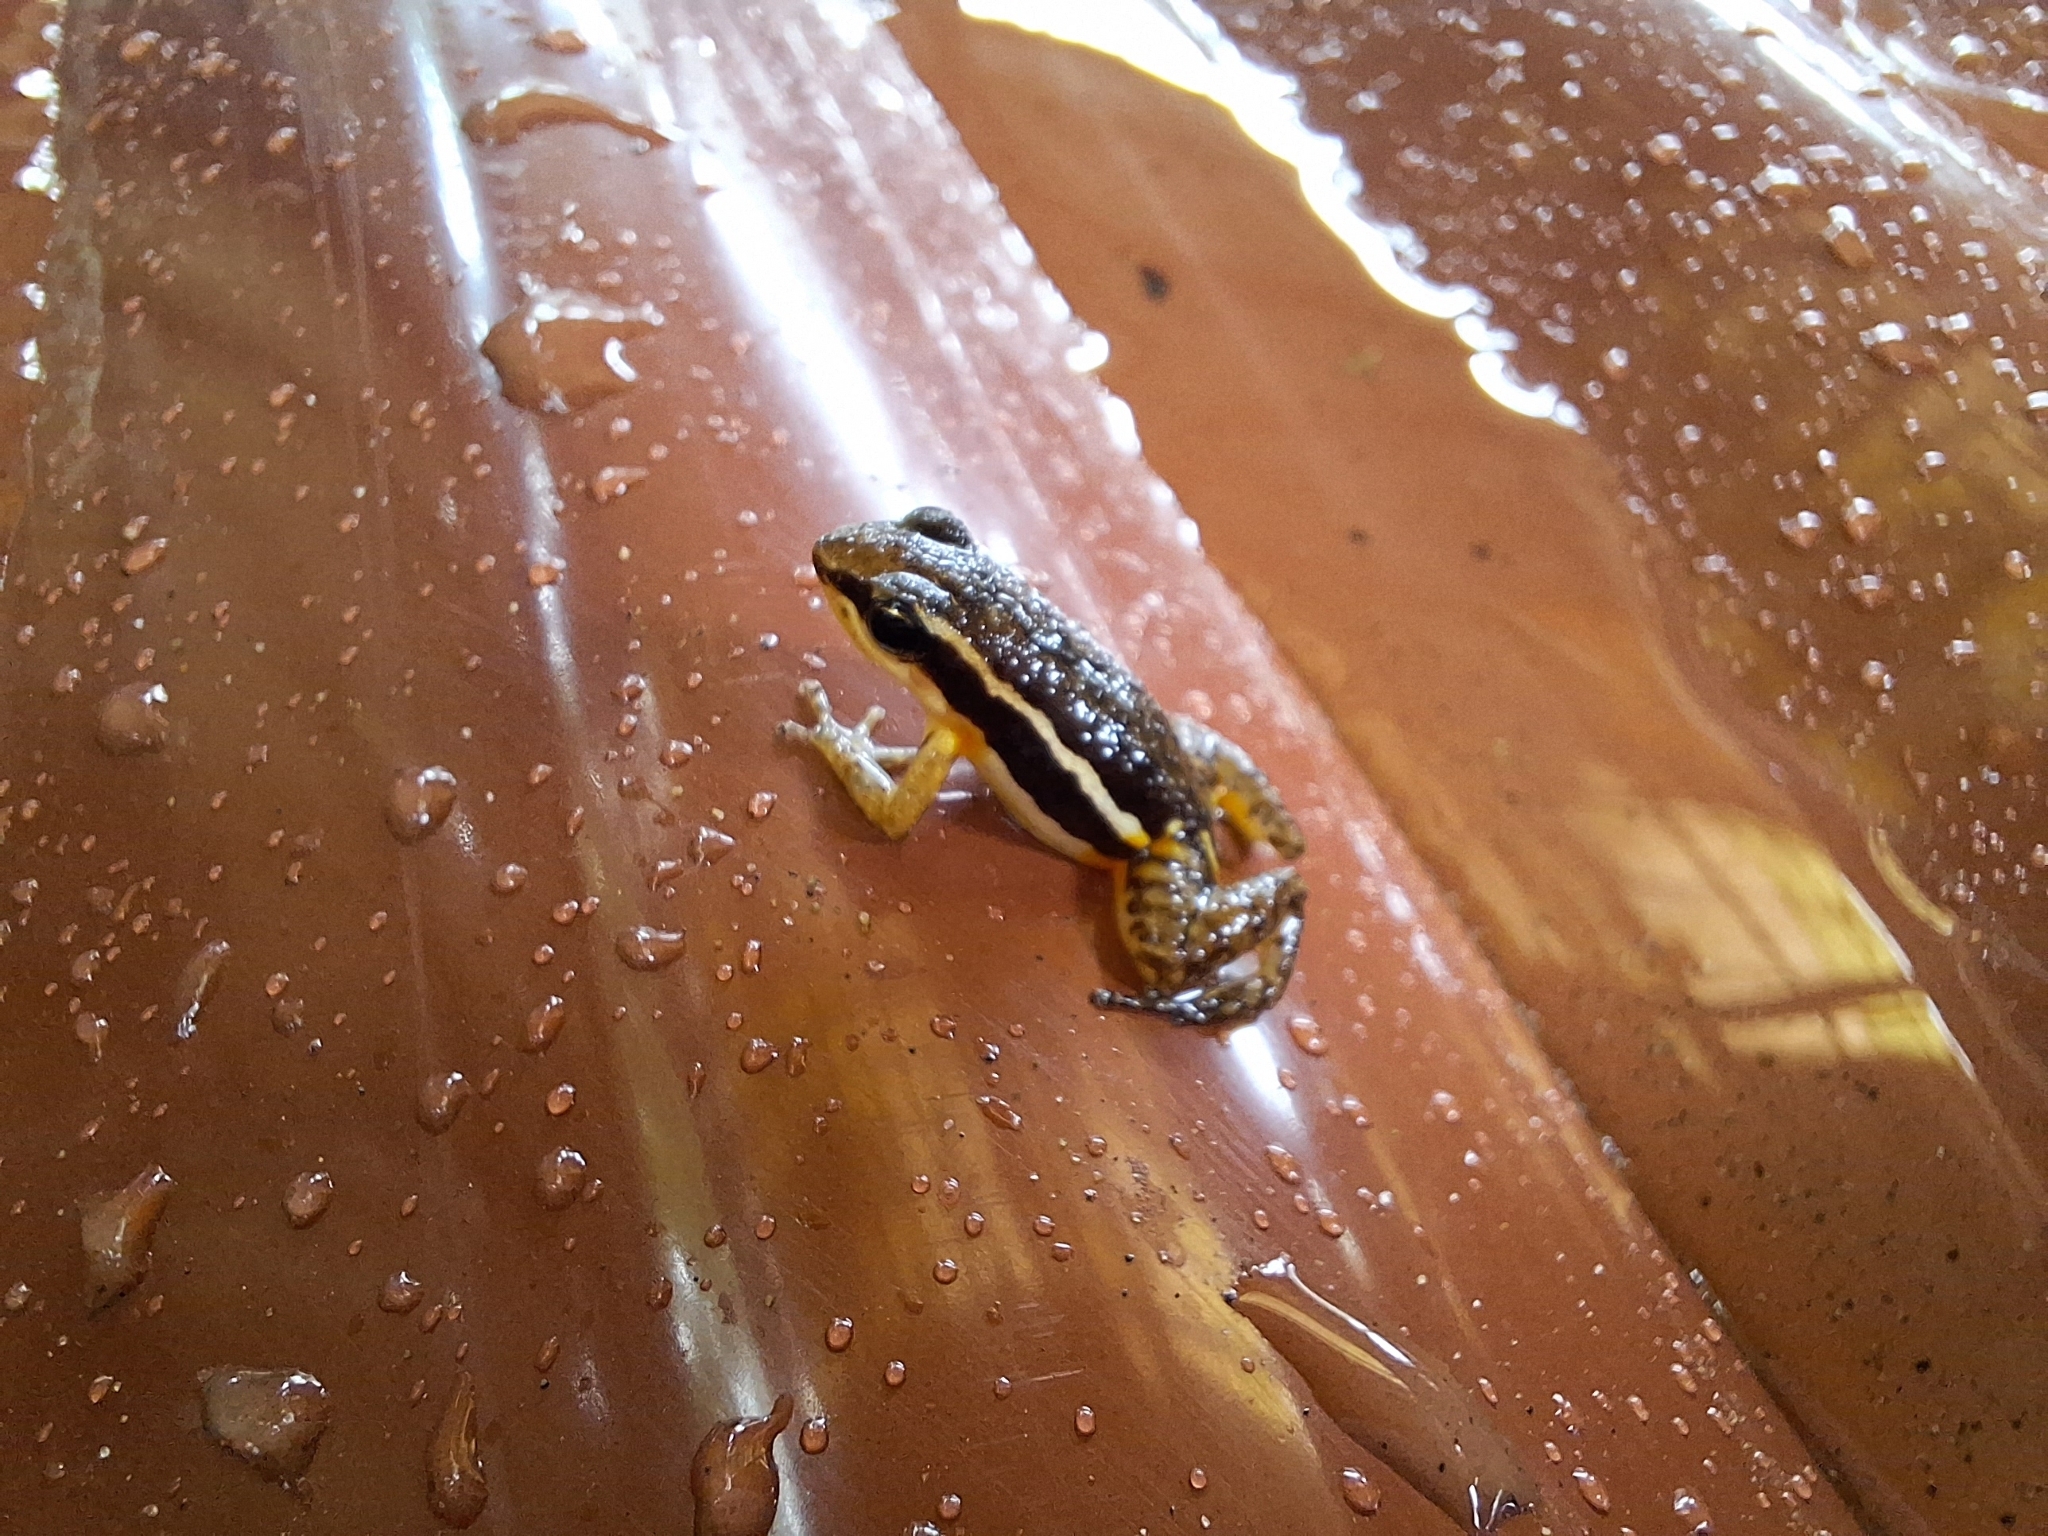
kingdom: Animalia
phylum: Chordata
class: Amphibia
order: Anura
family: Dendrobatidae
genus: Epipedobates
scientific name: Epipedobates machalilla
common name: Machalilla rocket frog
